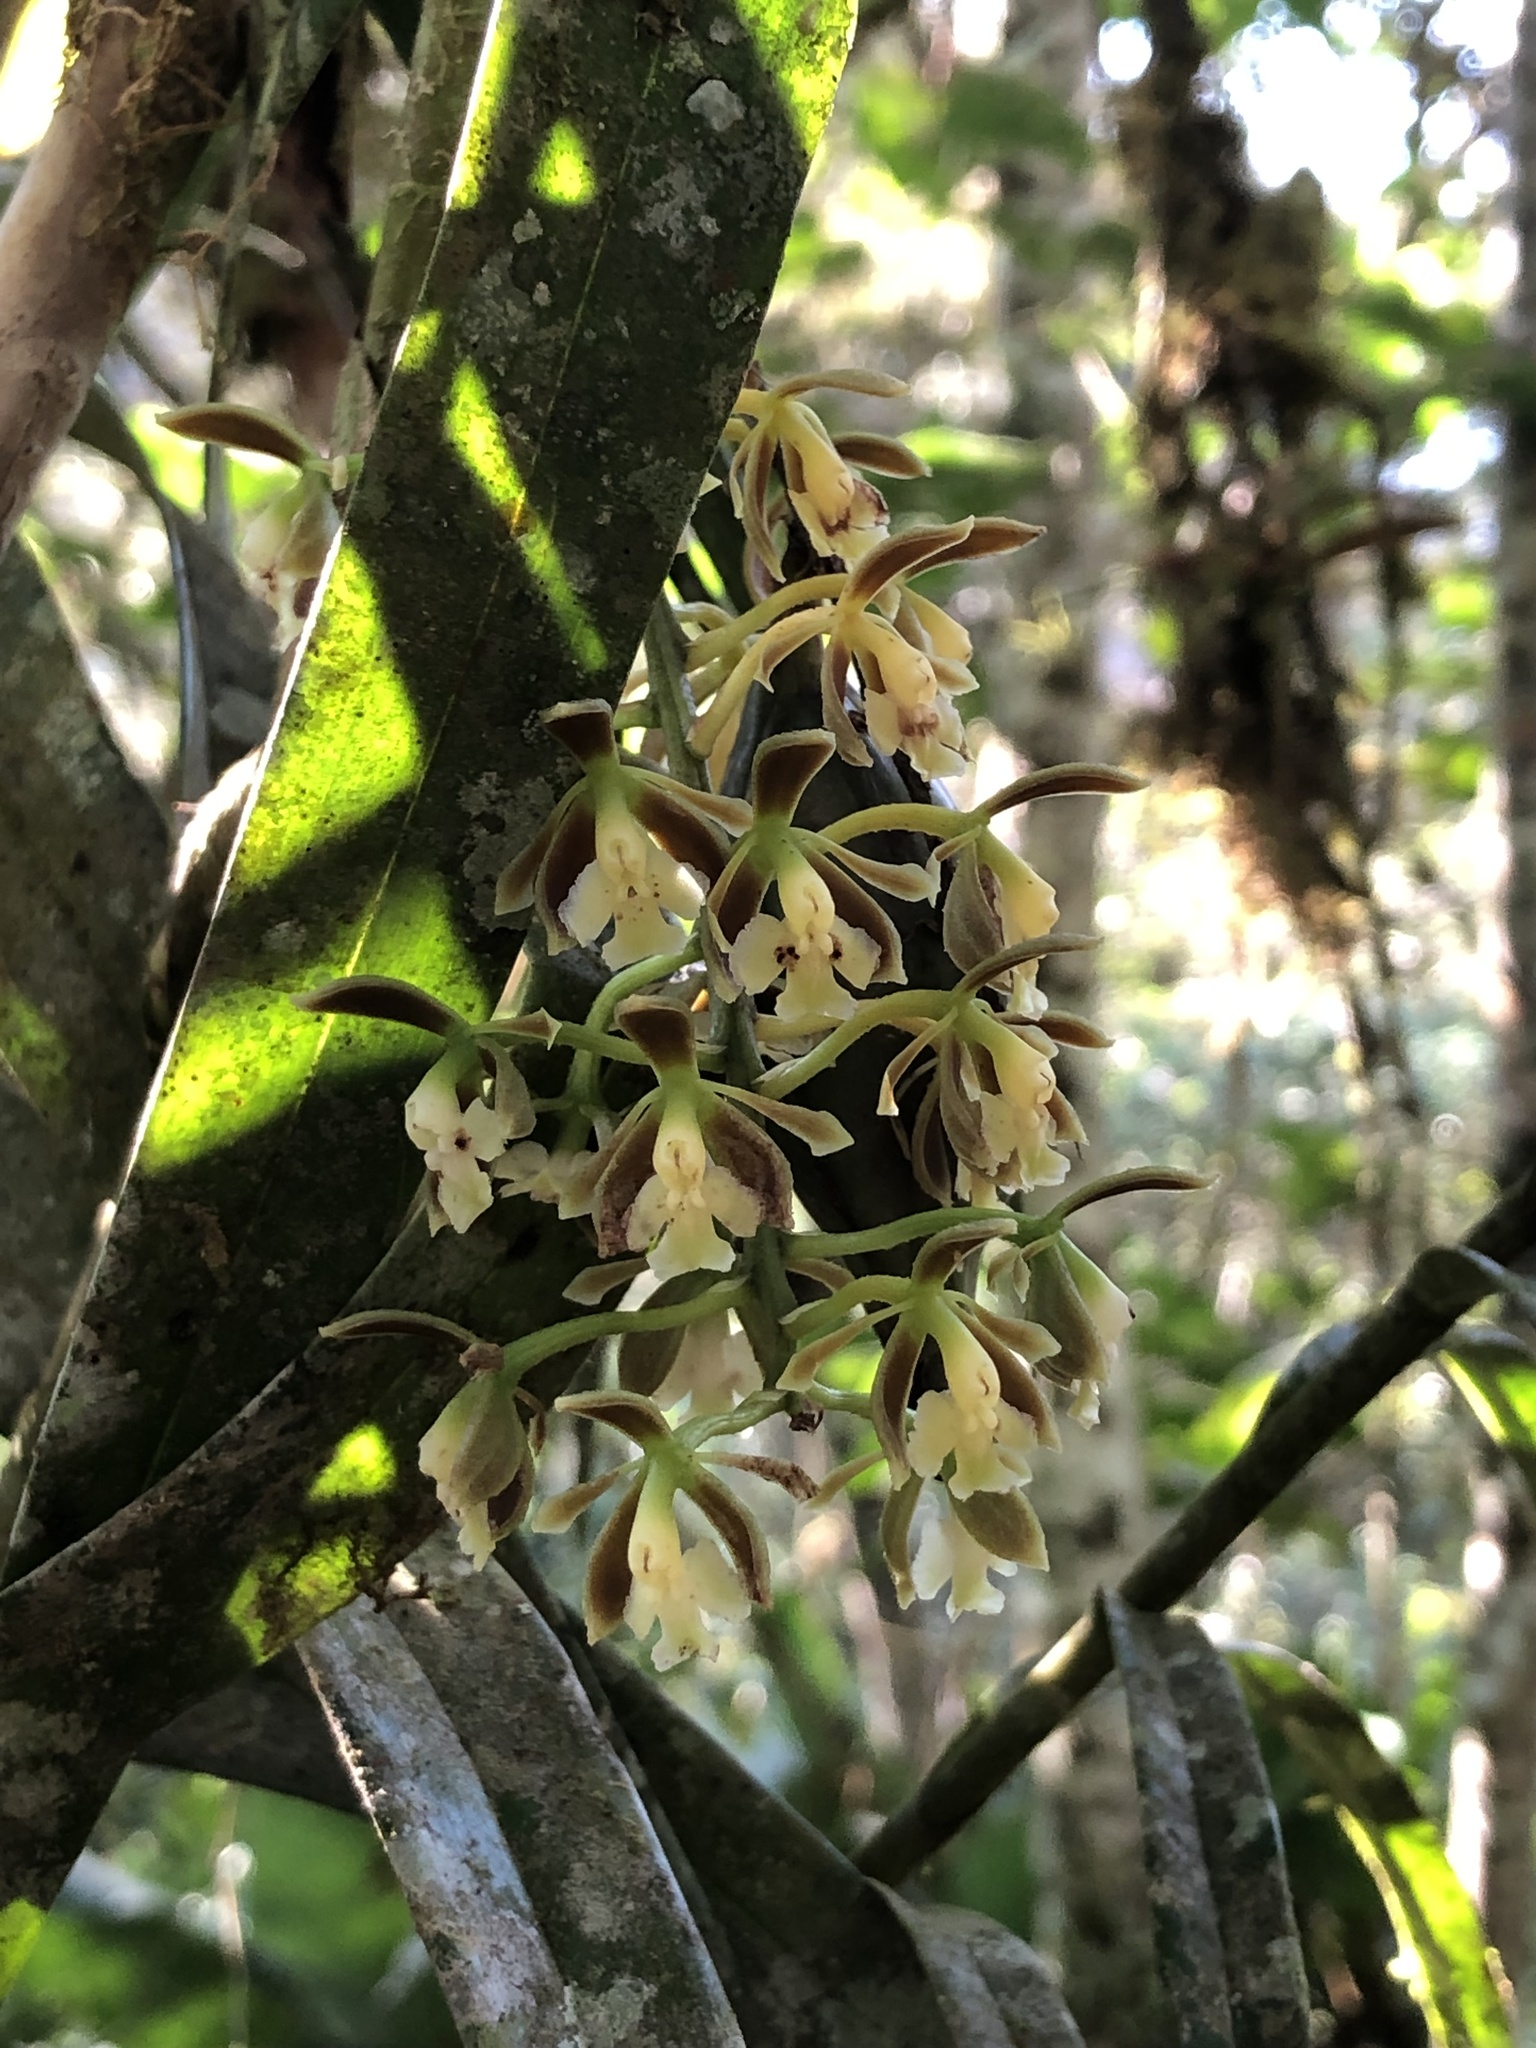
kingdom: Plantae
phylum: Tracheophyta
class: Liliopsida
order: Asparagales
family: Orchidaceae
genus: Epidendrum
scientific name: Epidendrum bambusiforme
